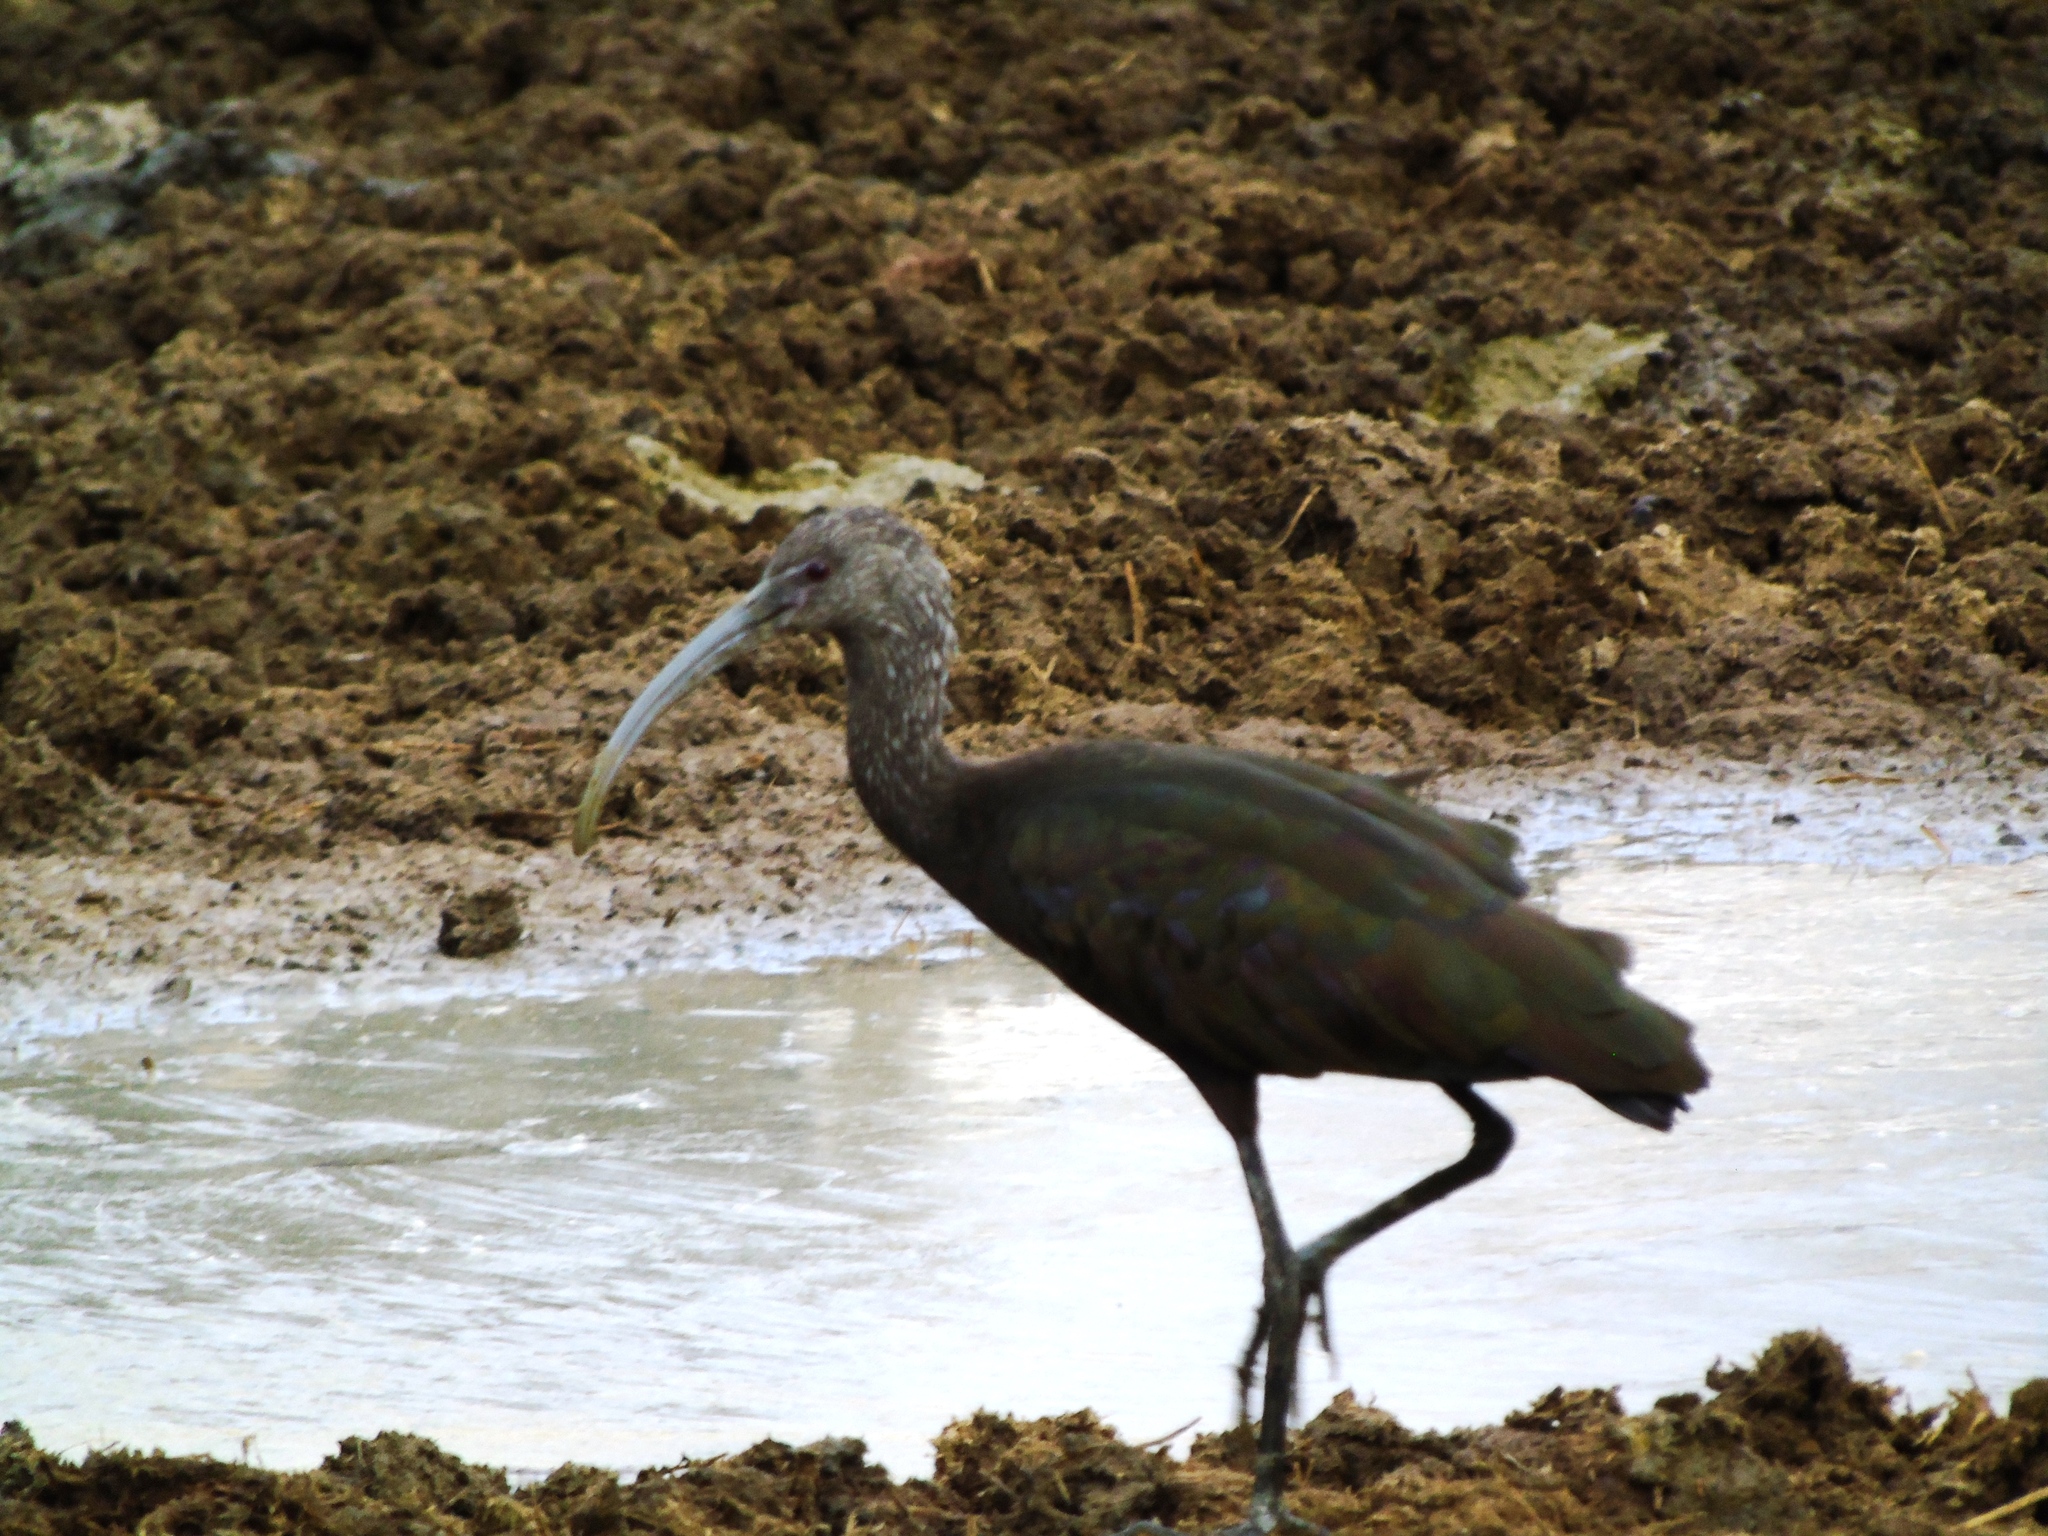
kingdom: Animalia
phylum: Chordata
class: Aves
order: Pelecaniformes
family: Threskiornithidae
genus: Plegadis
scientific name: Plegadis chihi
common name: White-faced ibis
